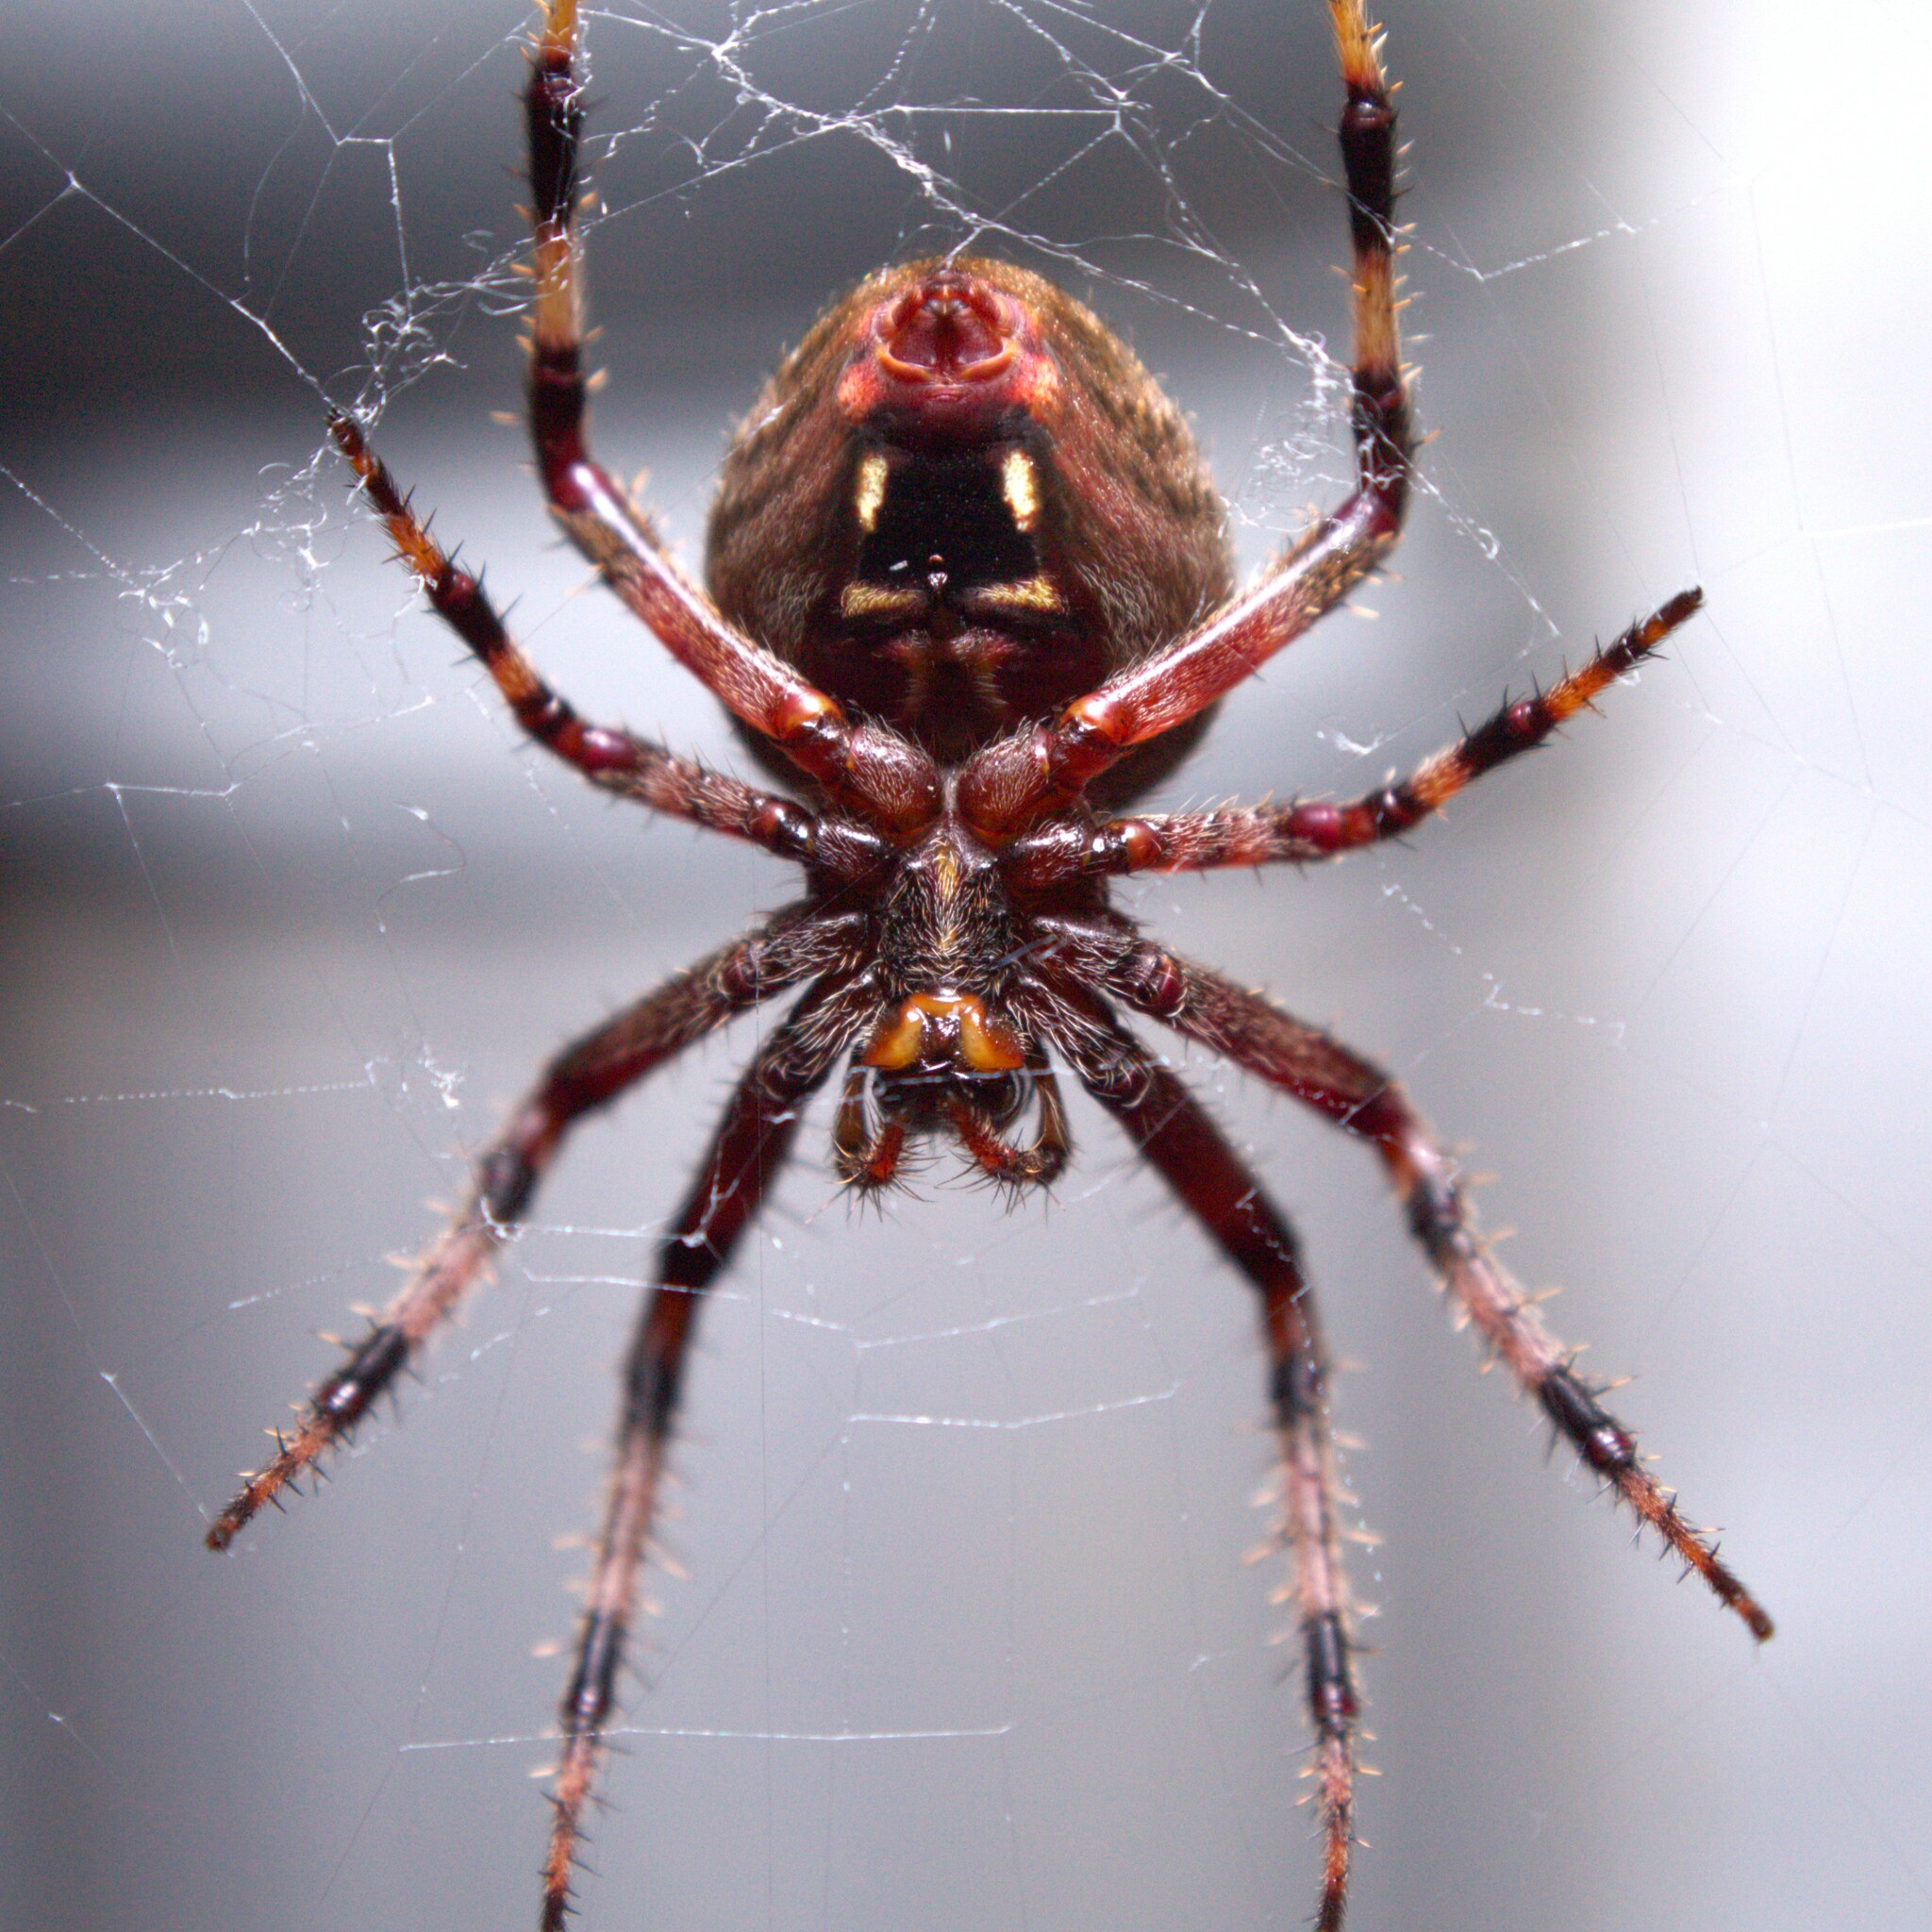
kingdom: Animalia
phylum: Arthropoda
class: Arachnida
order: Araneae
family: Araneidae
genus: Neoscona
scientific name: Neoscona crucifera
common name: Spotted orbweaver
